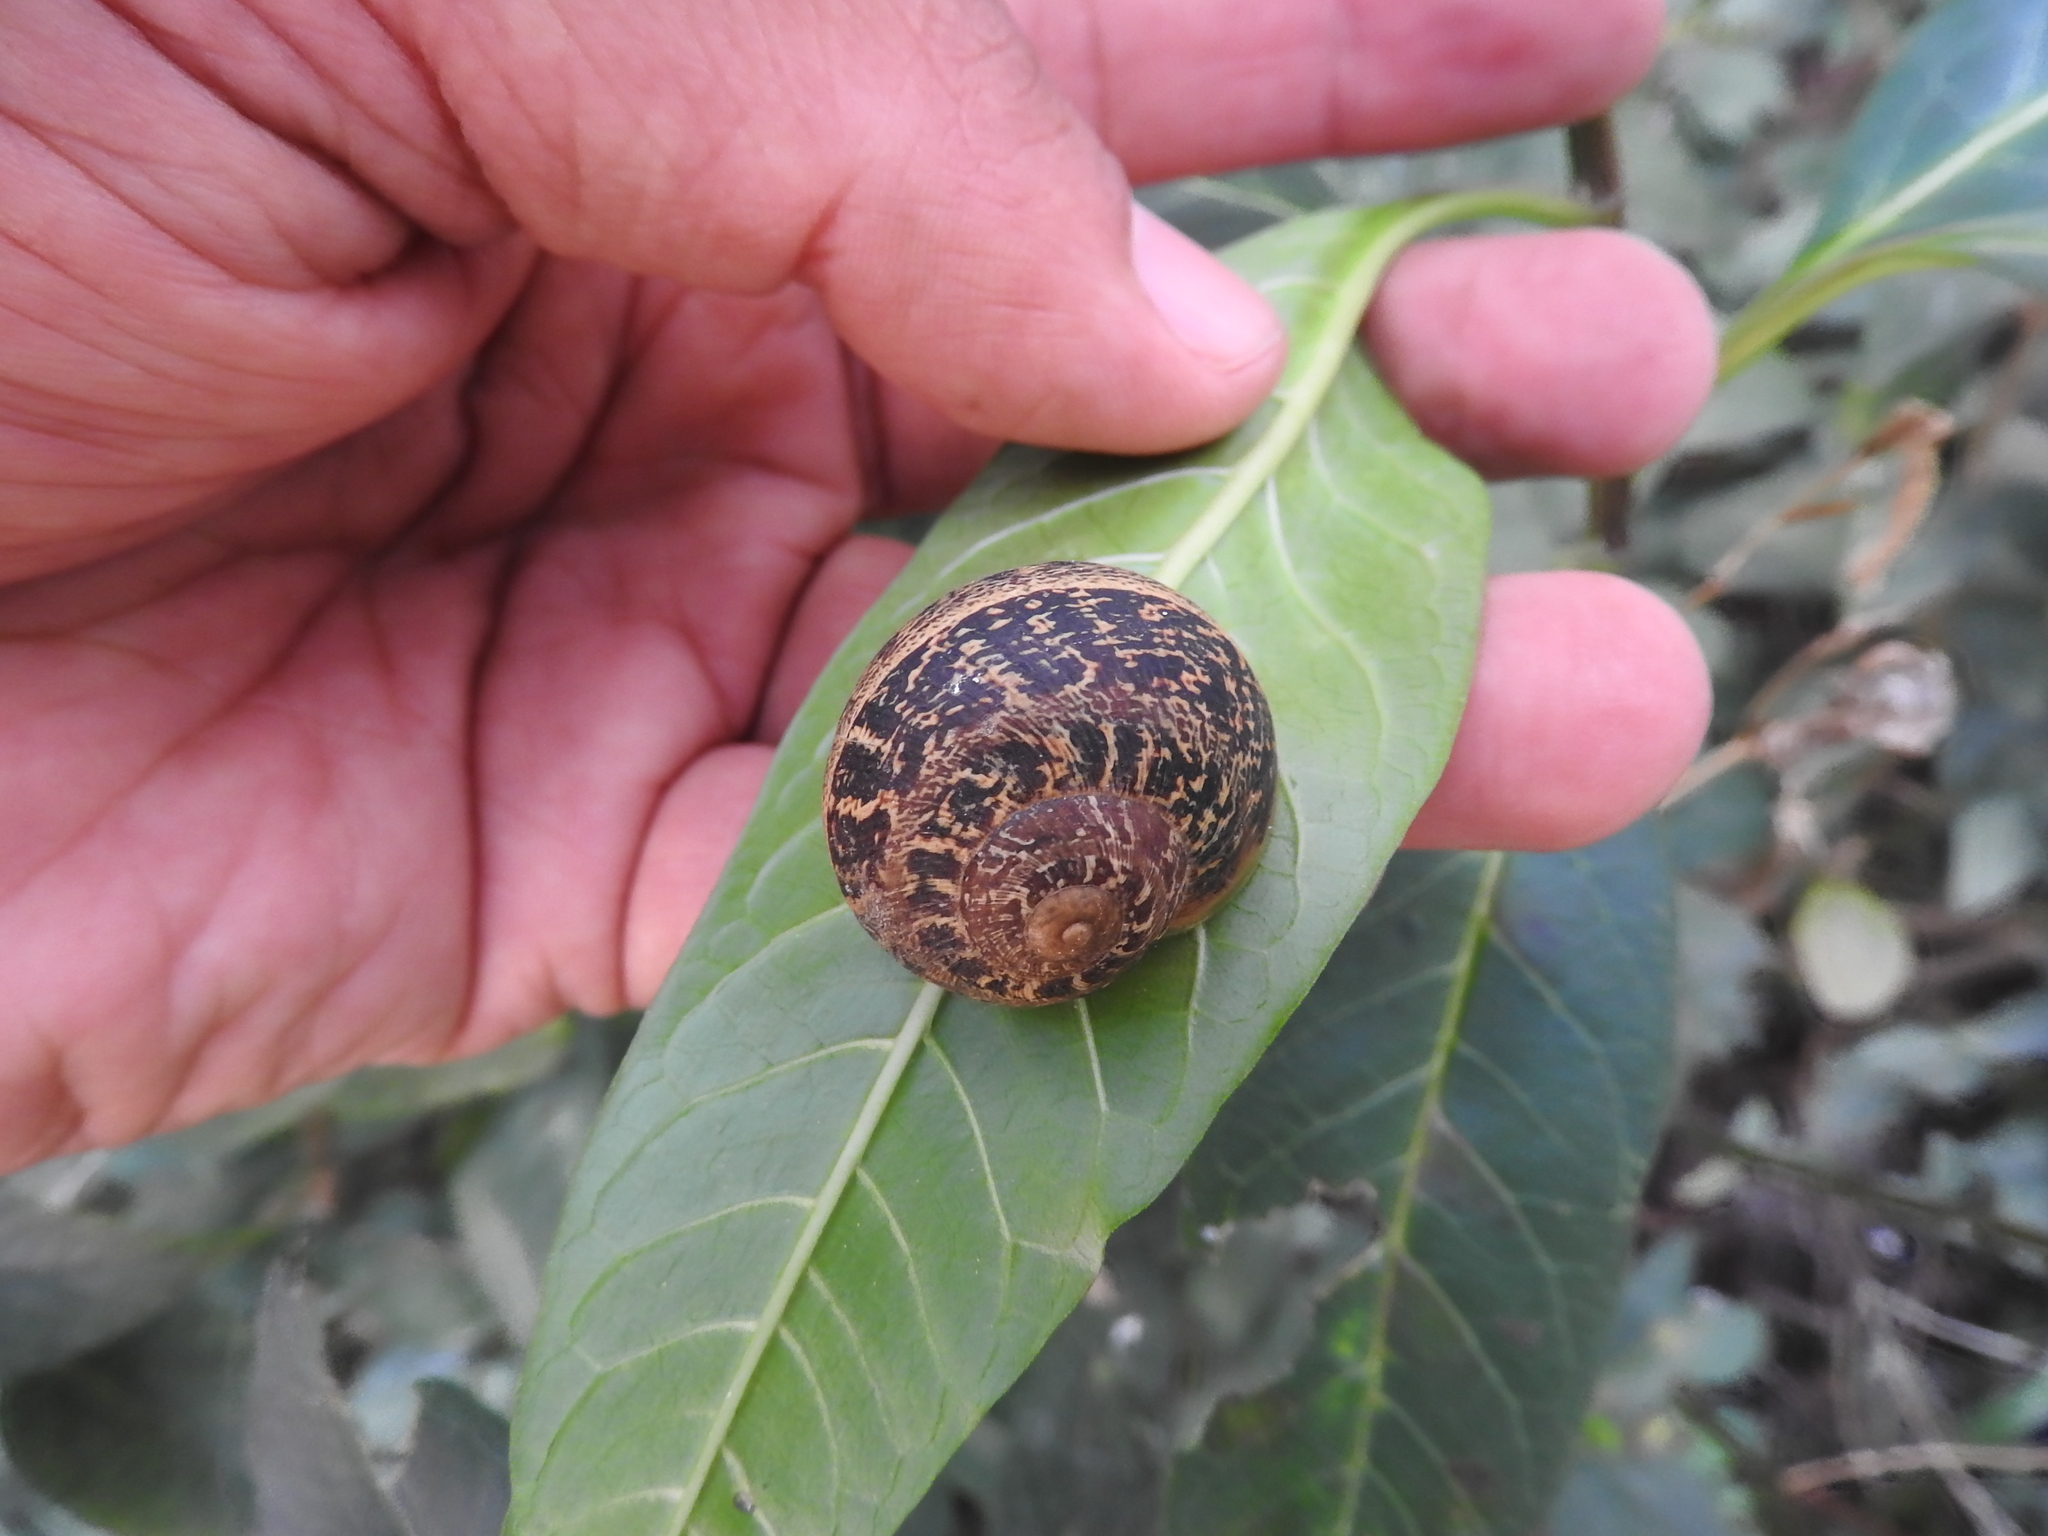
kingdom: Animalia
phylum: Mollusca
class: Gastropoda
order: Stylommatophora
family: Helicidae
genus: Cornu
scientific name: Cornu aspersum
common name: Brown garden snail
